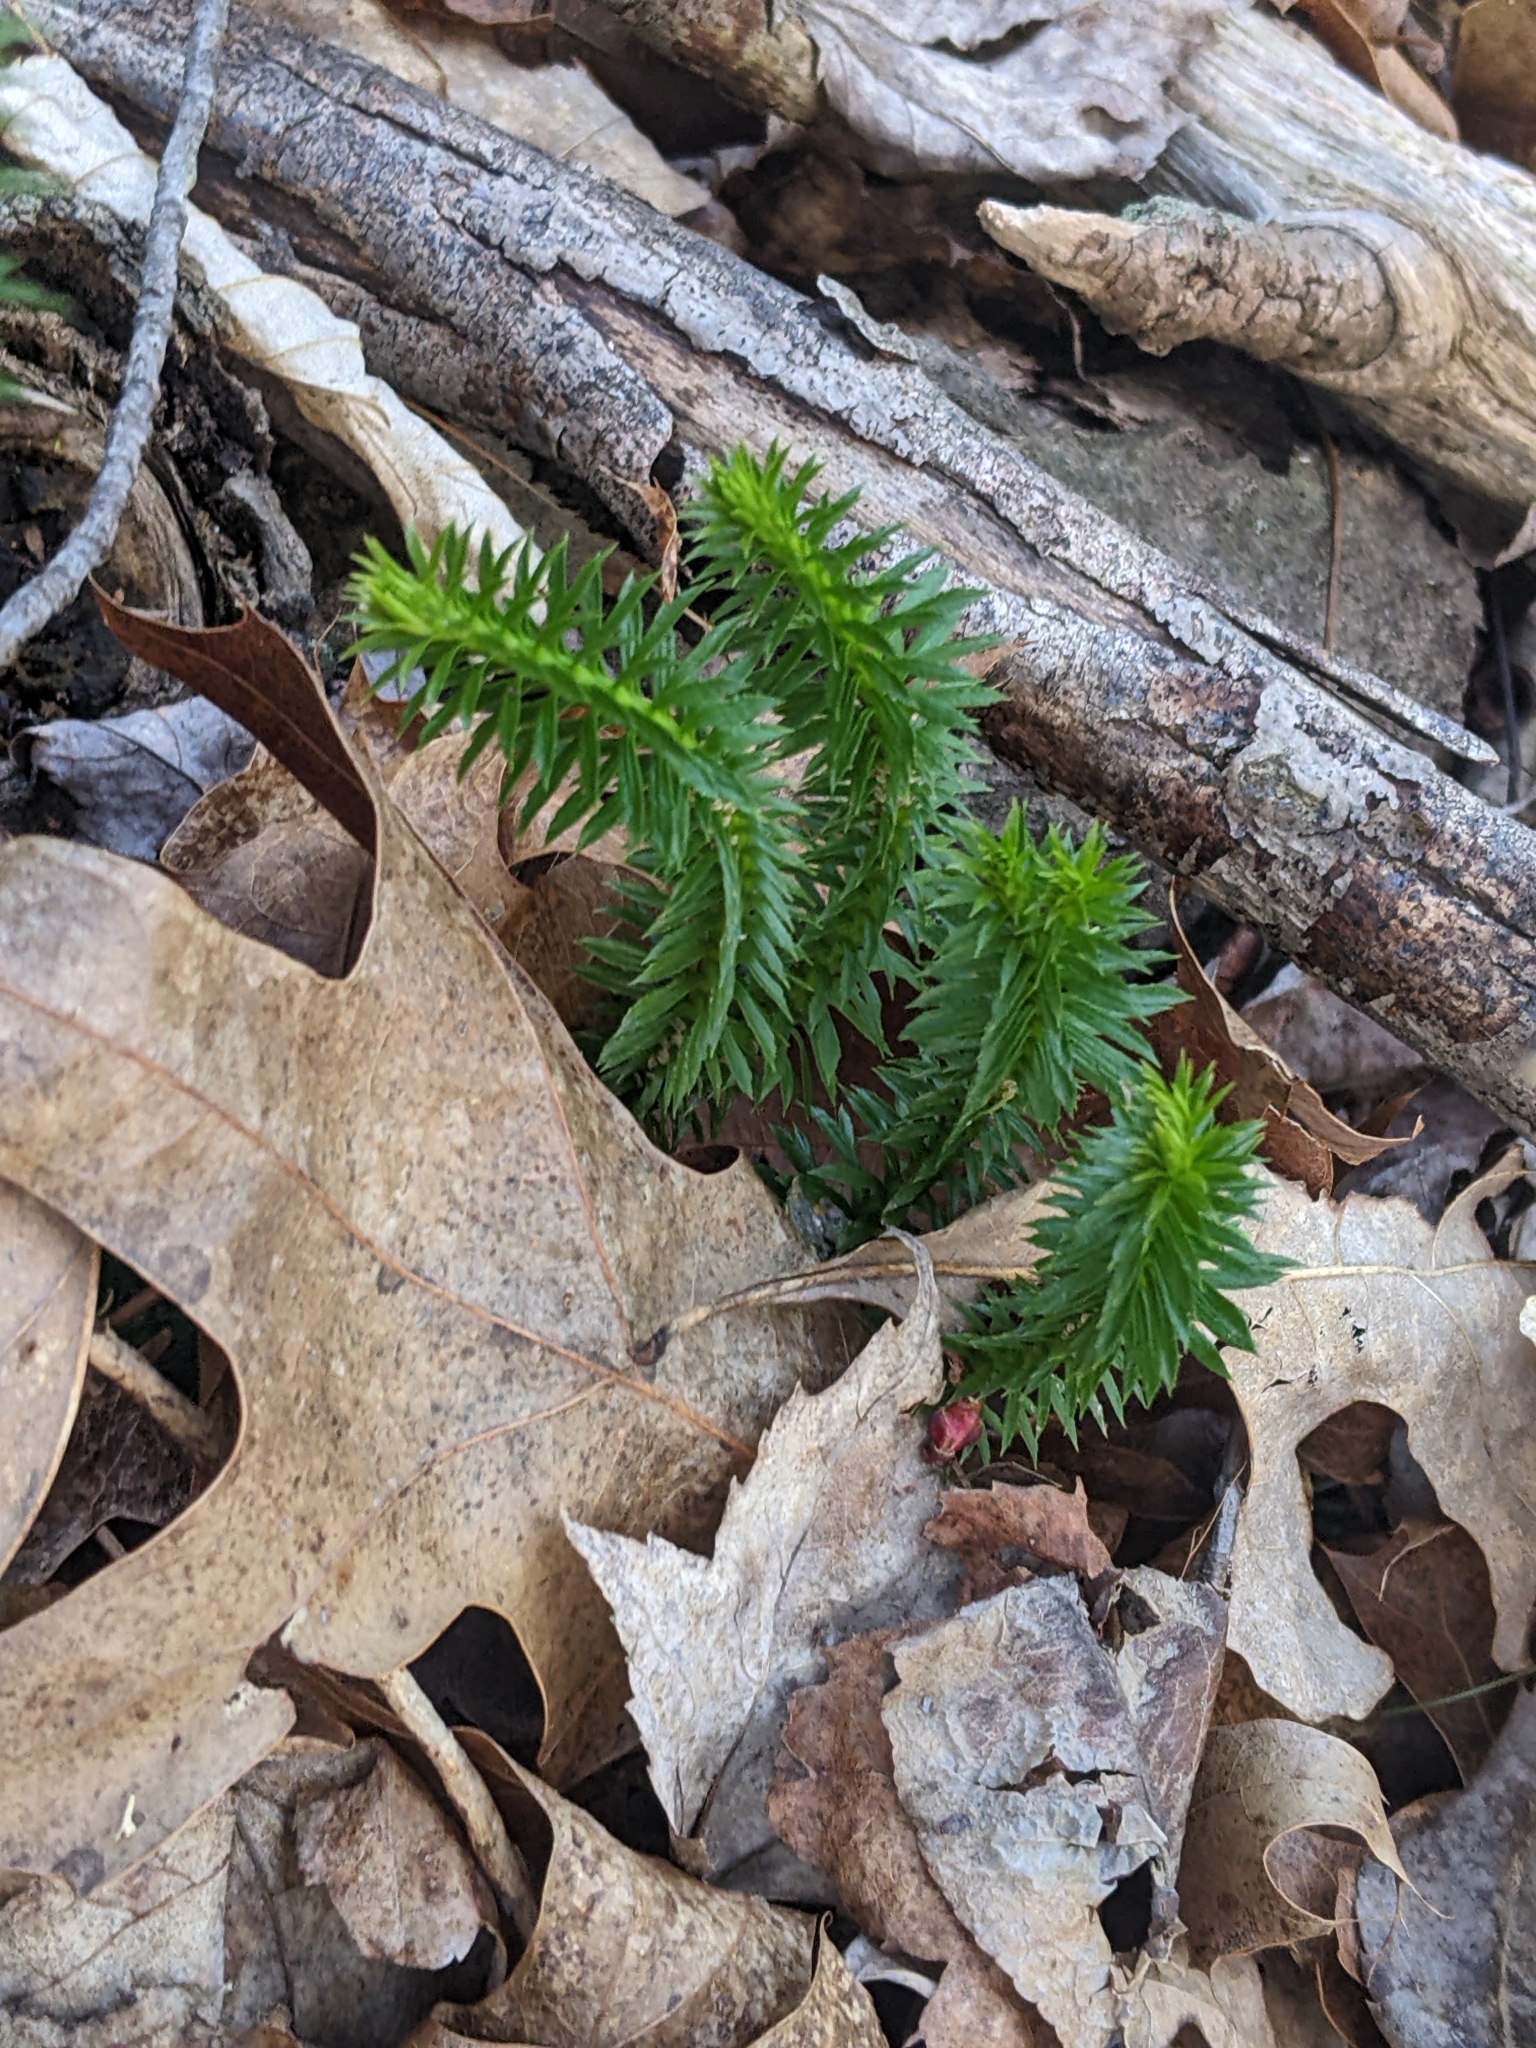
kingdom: Plantae
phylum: Tracheophyta
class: Lycopodiopsida
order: Lycopodiales
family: Lycopodiaceae
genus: Huperzia
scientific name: Huperzia lucidula
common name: Shining clubmoss
